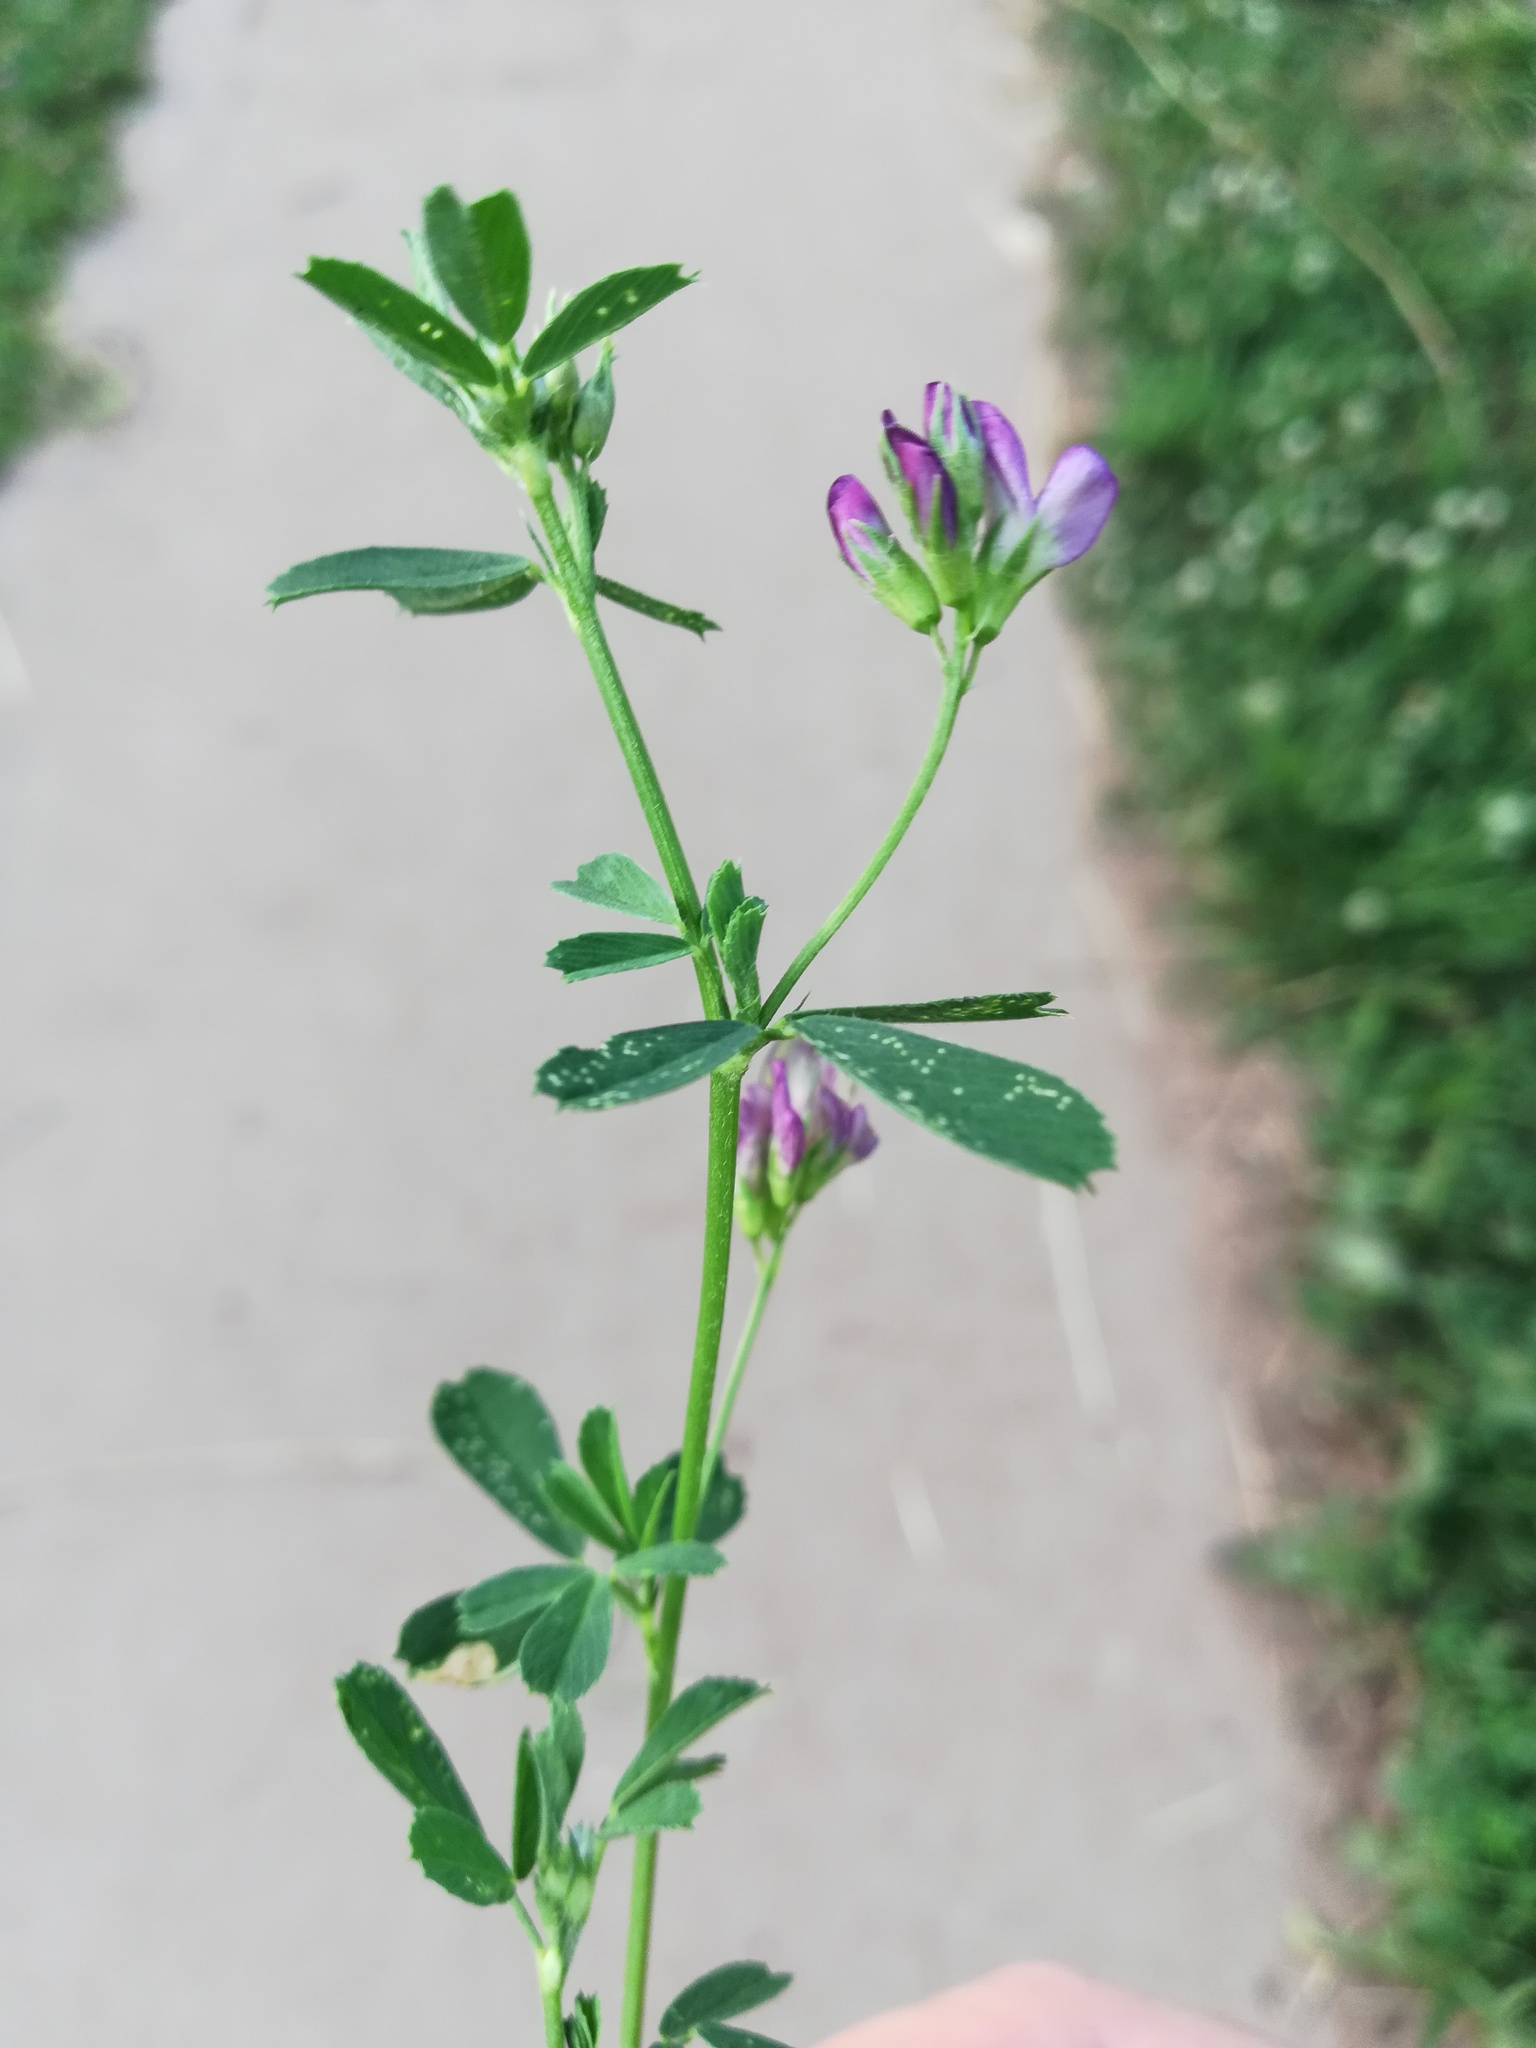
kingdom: Plantae
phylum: Tracheophyta
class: Magnoliopsida
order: Fabales
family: Fabaceae
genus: Medicago
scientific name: Medicago sativa
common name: Alfalfa
